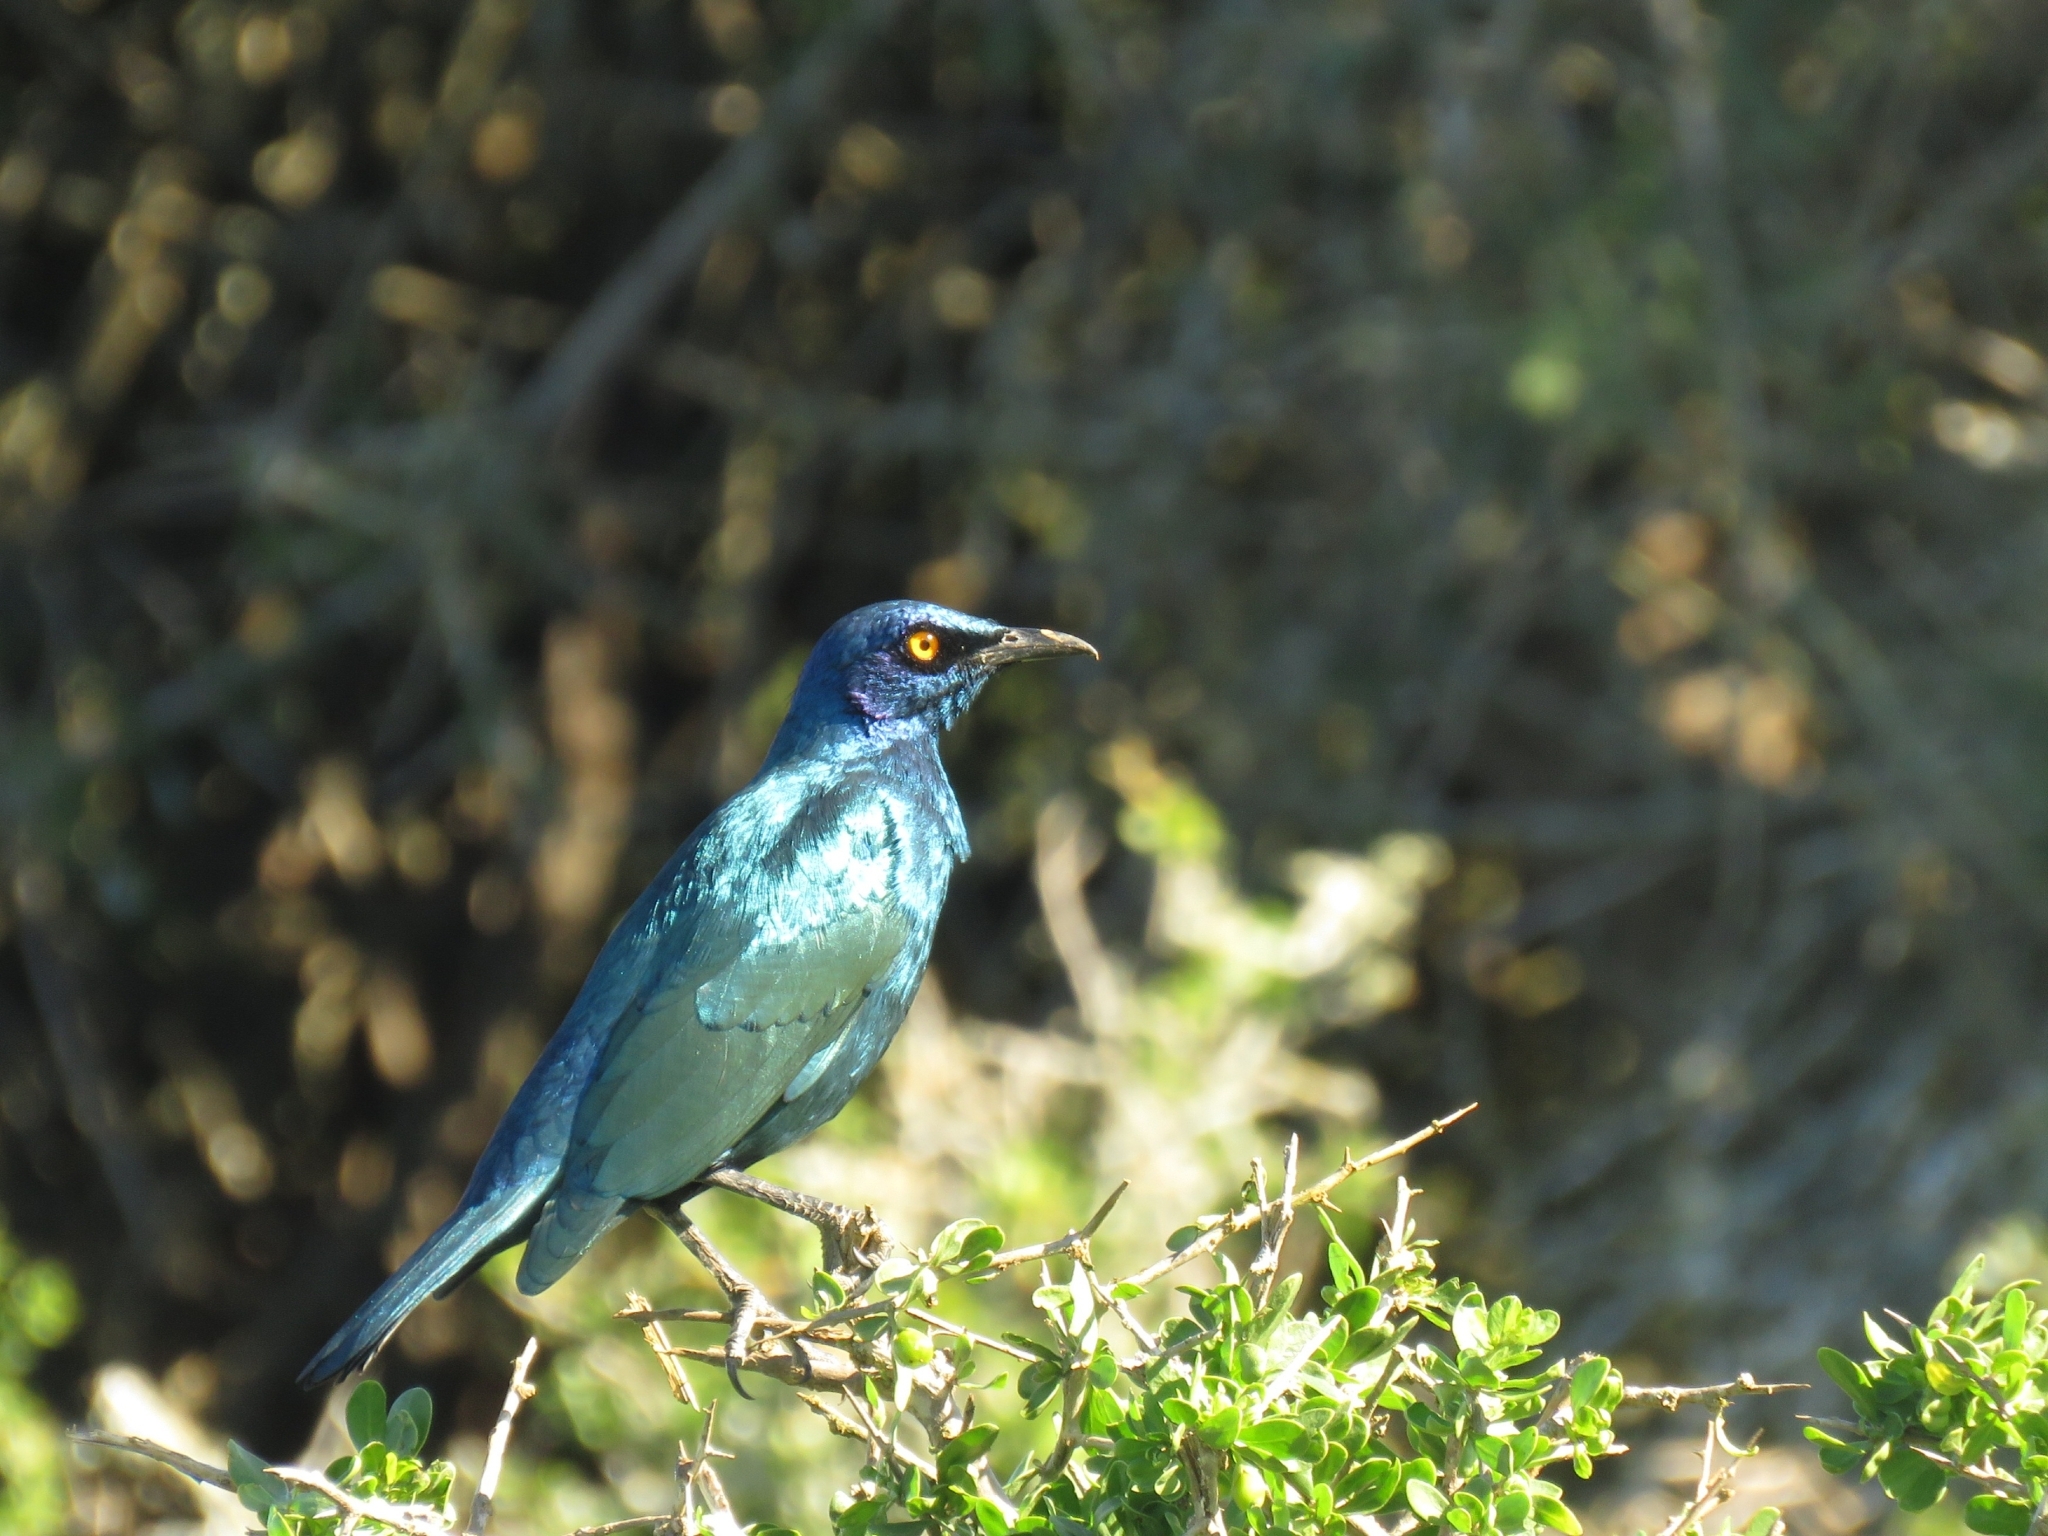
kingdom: Animalia
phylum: Chordata
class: Aves
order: Passeriformes
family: Sturnidae
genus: Lamprotornis
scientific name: Lamprotornis nitens
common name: Cape starling
